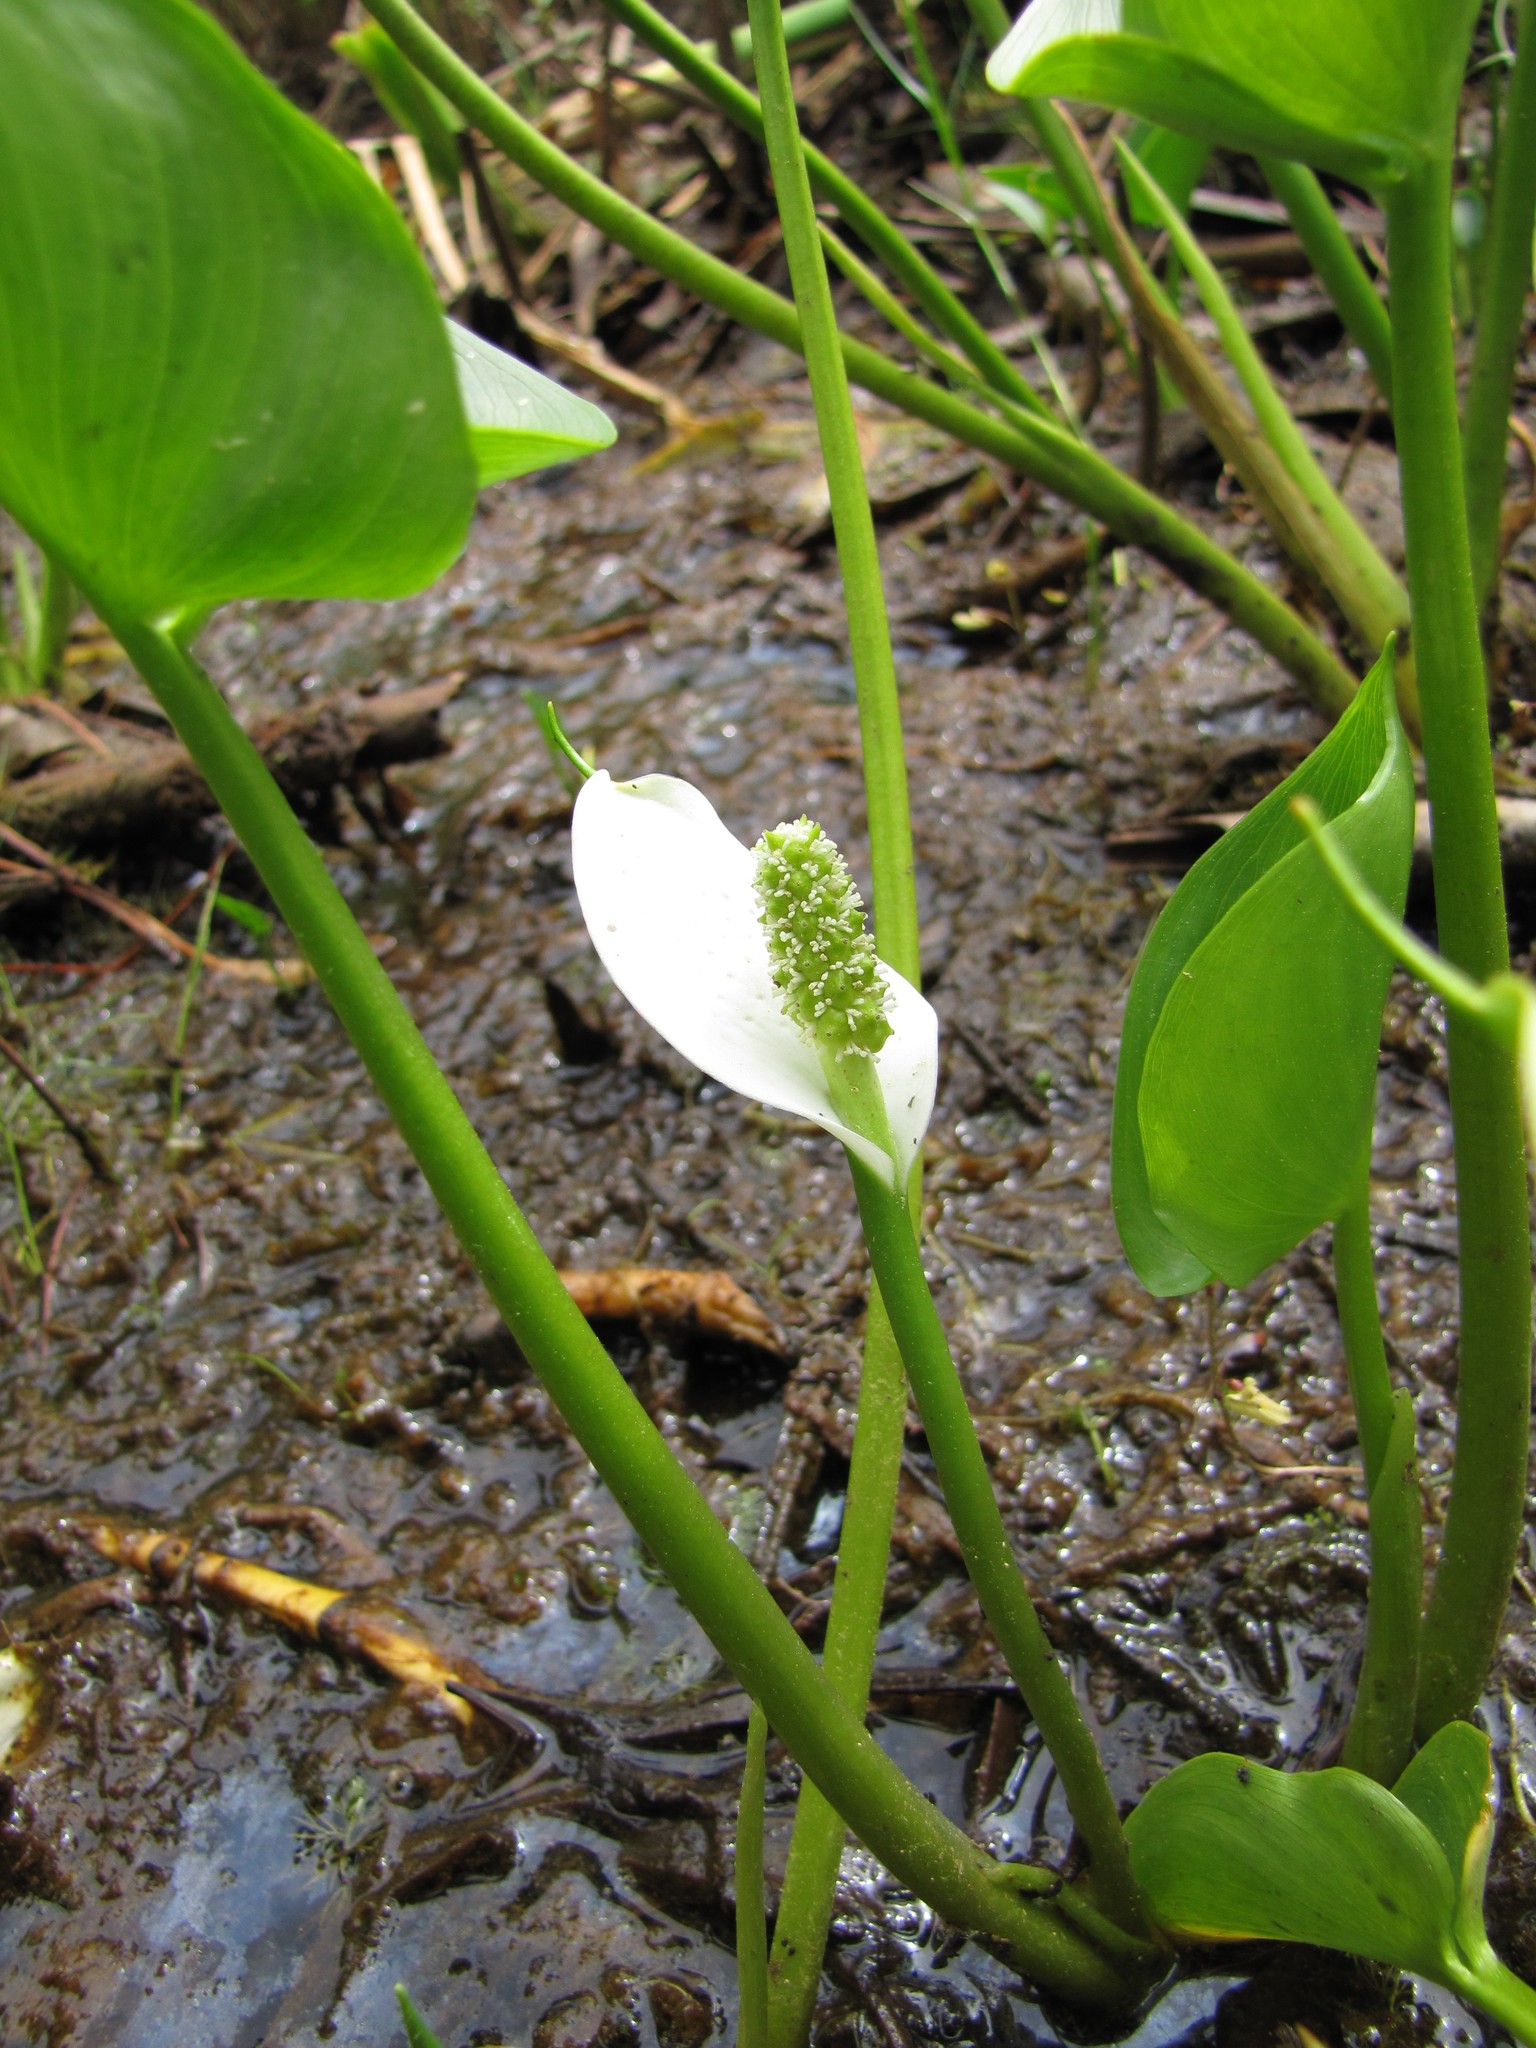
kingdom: Plantae
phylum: Tracheophyta
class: Liliopsida
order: Alismatales
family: Araceae
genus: Calla
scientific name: Calla palustris
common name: Bog arum
